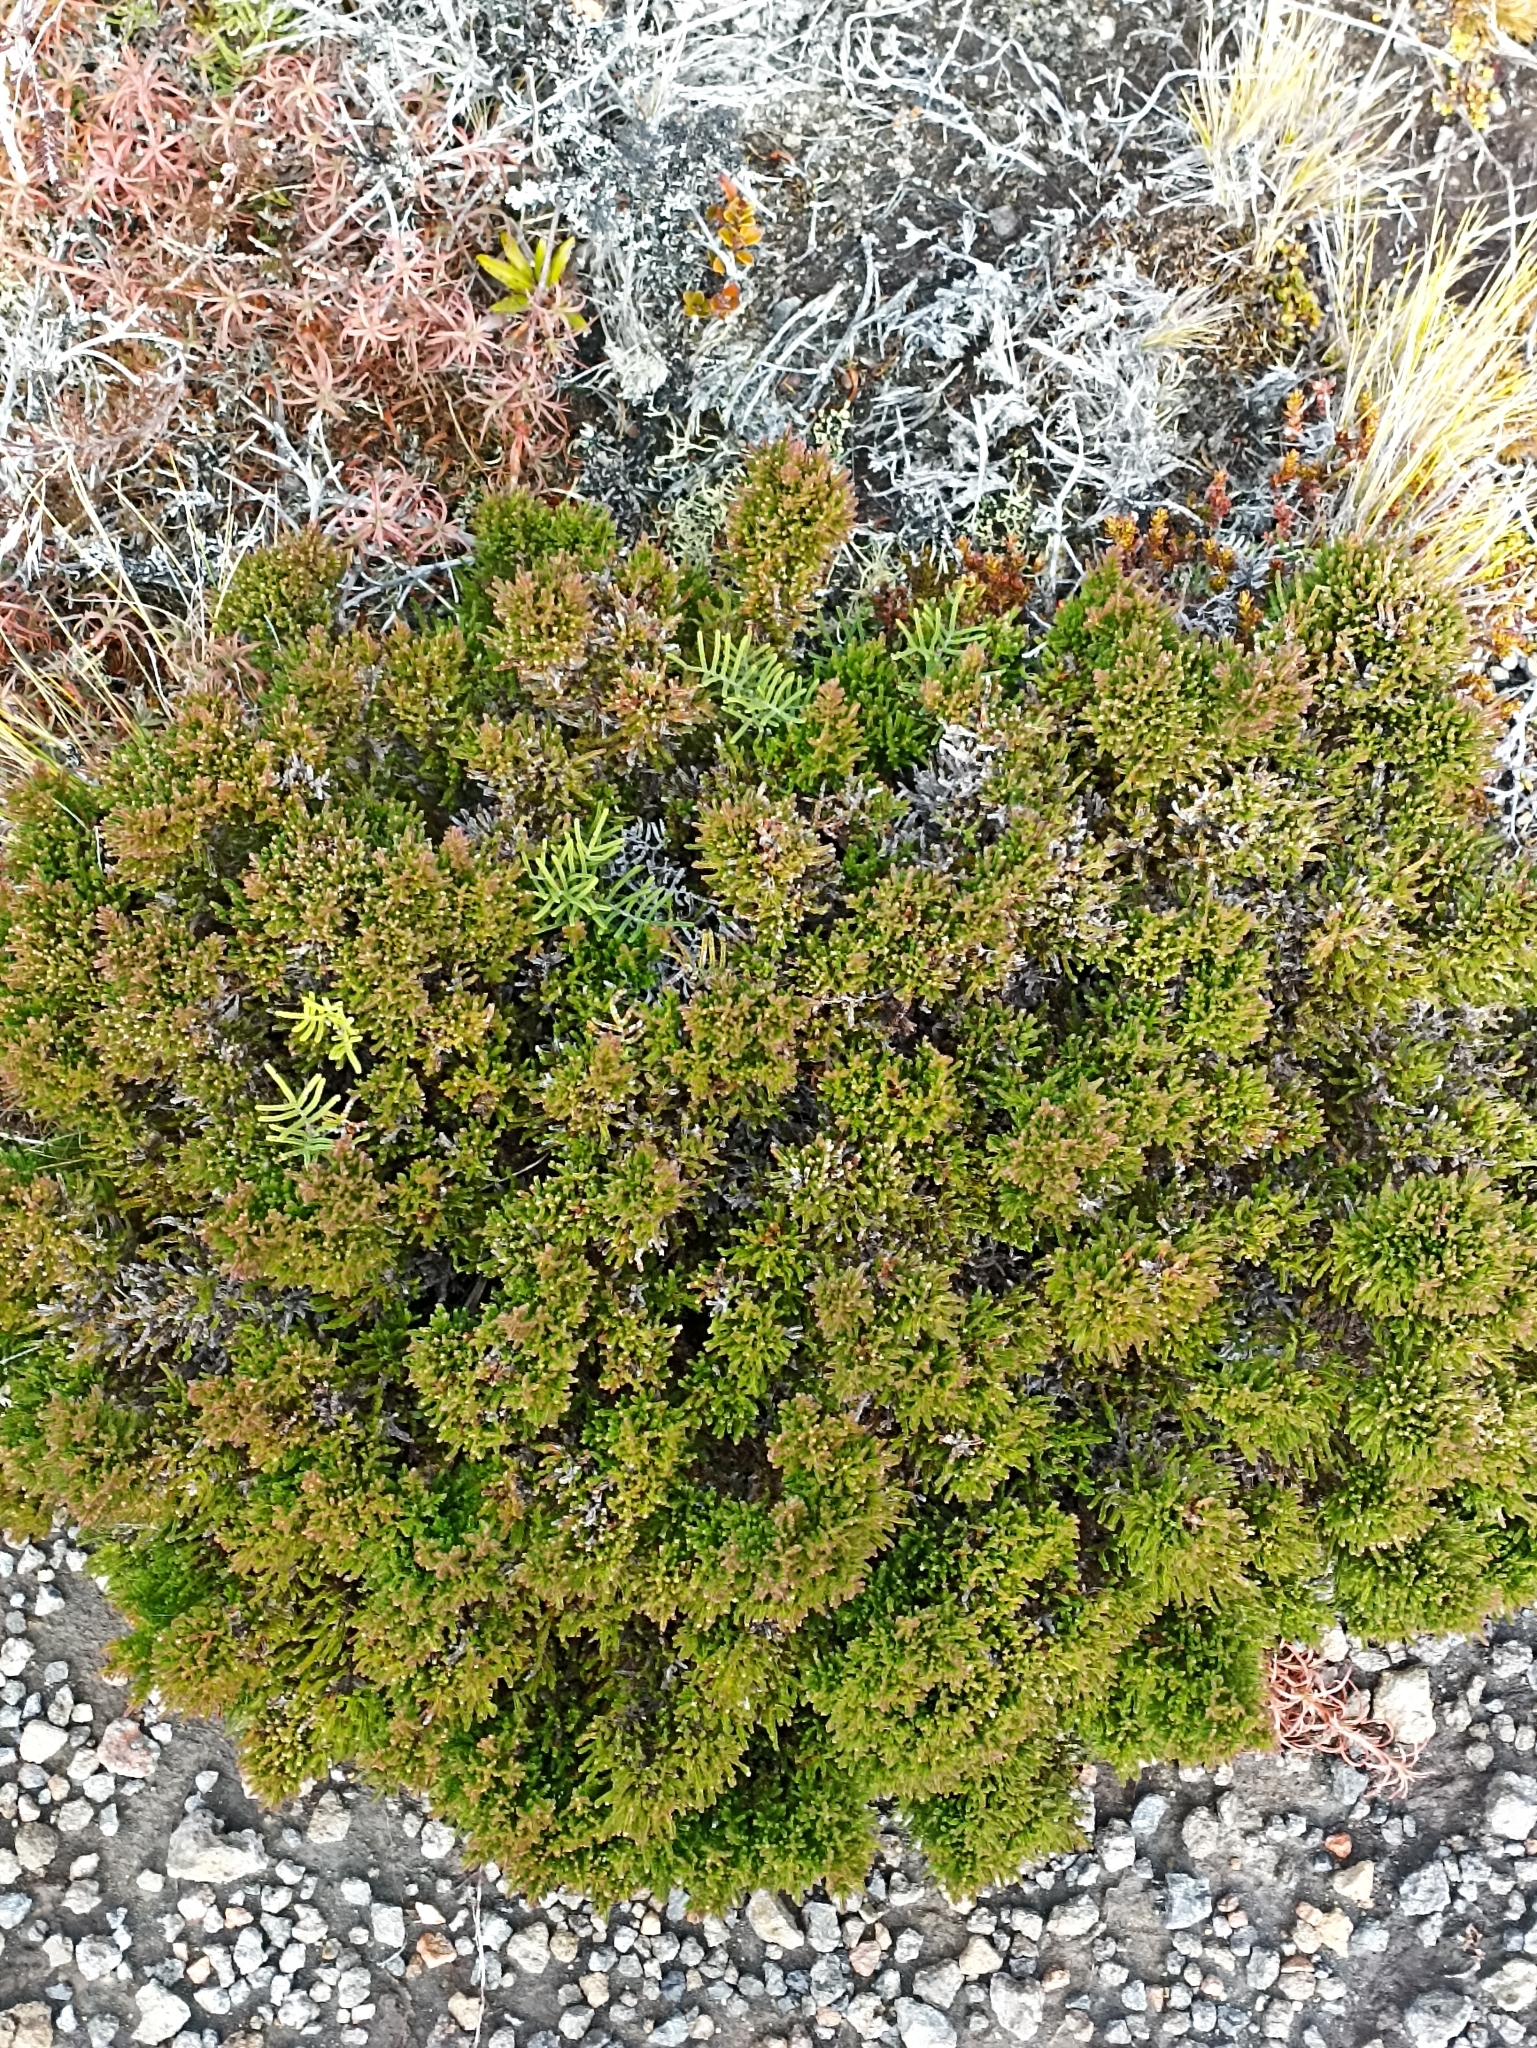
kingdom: Plantae
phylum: Tracheophyta
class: Magnoliopsida
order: Ericales
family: Ericaceae
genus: Calluna
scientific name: Calluna vulgaris
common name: Heather
